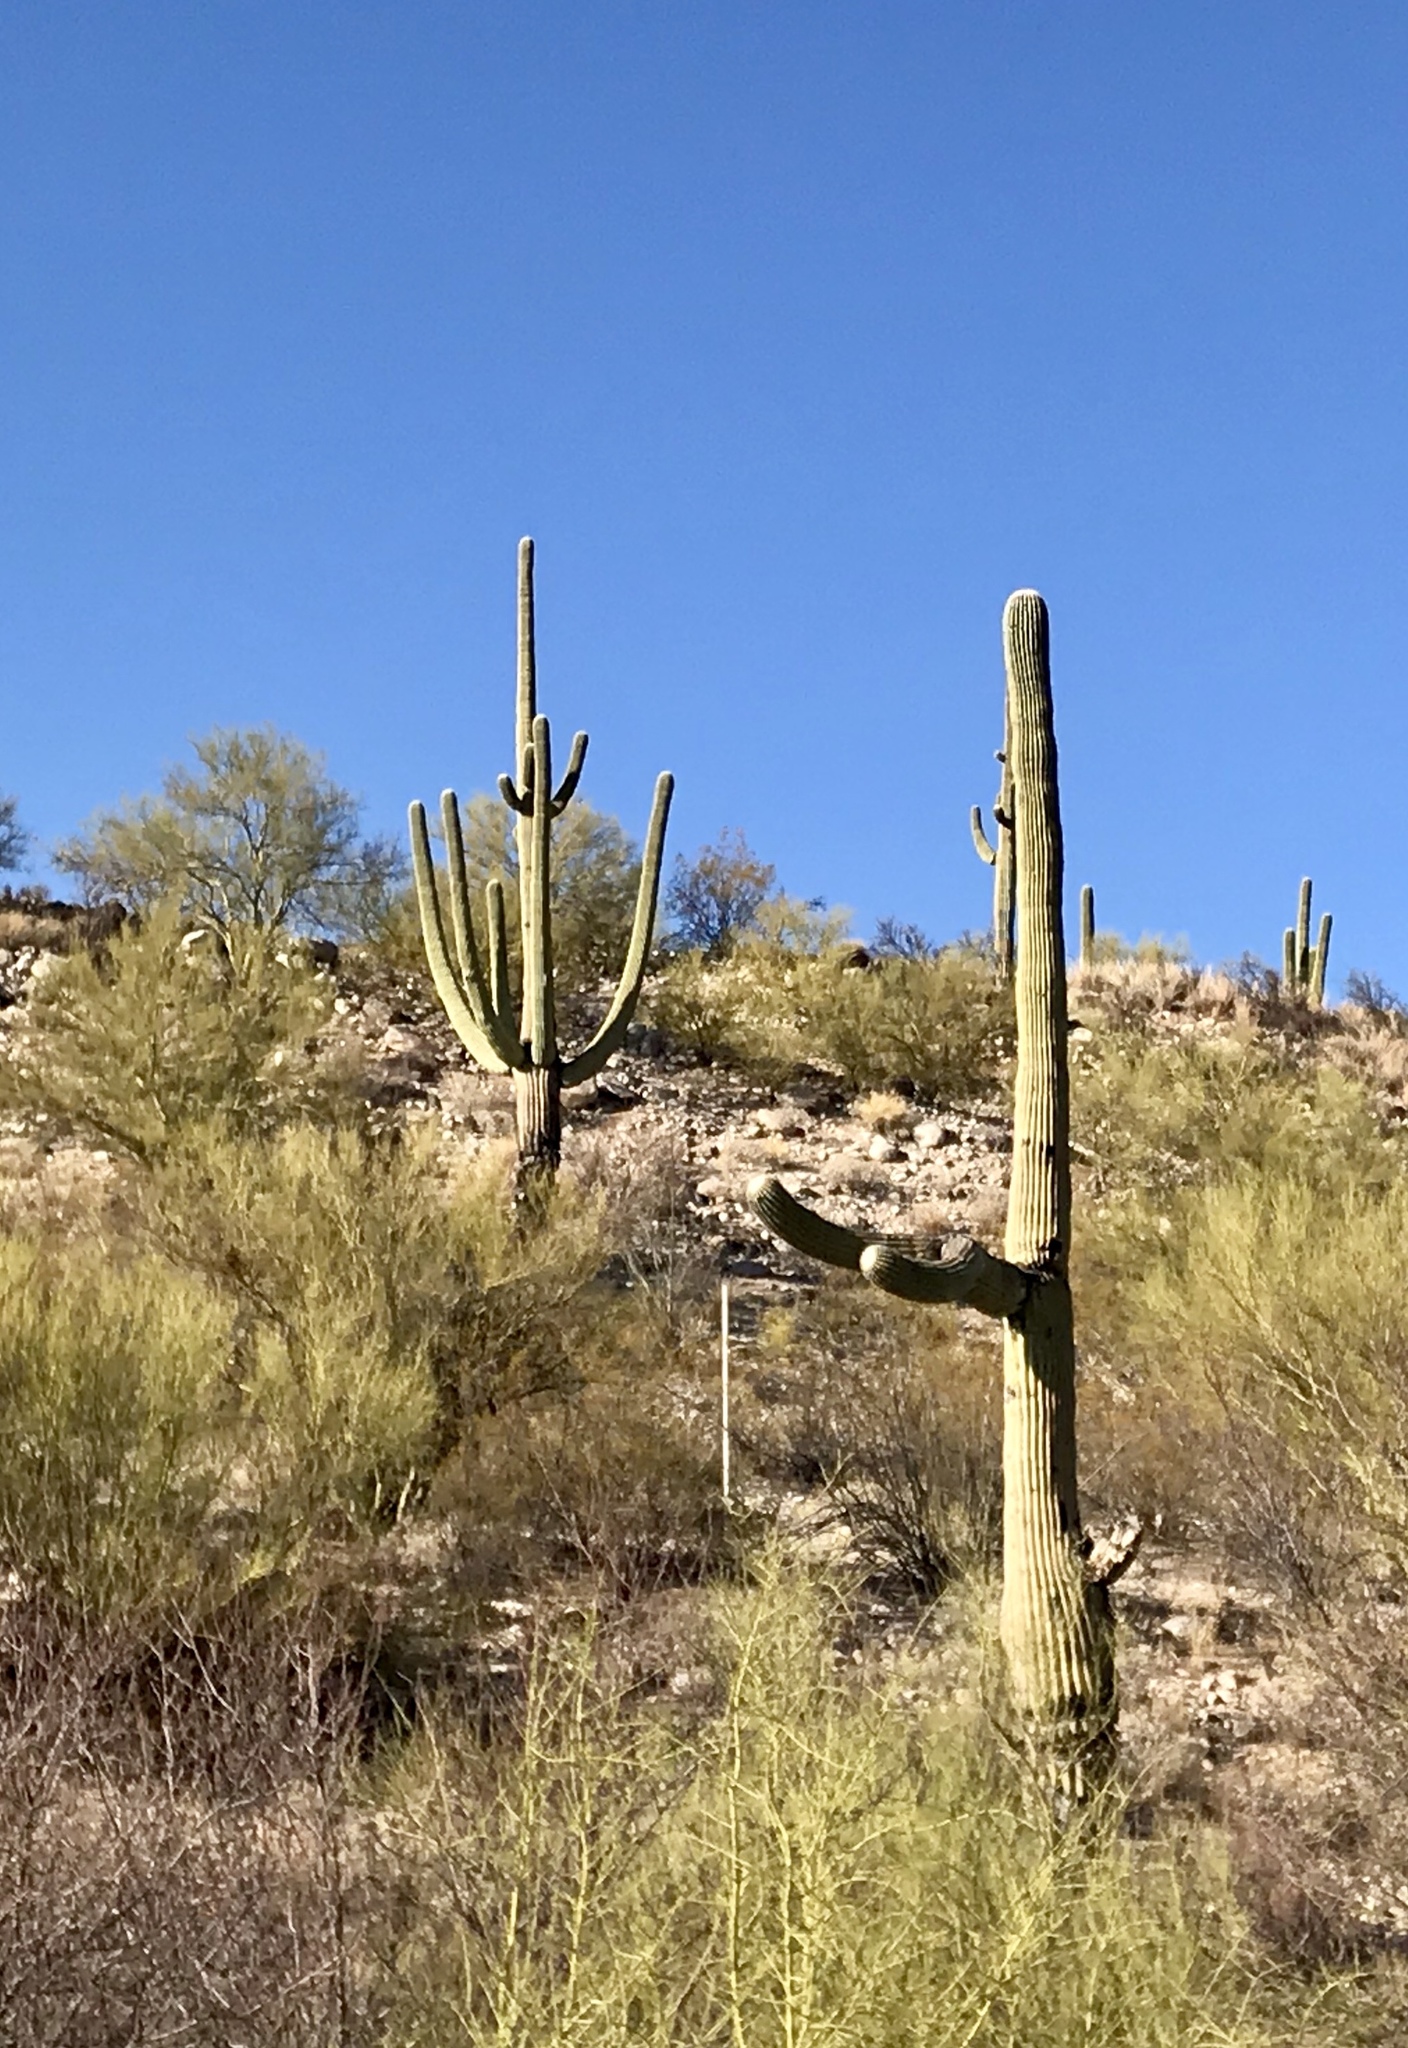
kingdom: Plantae
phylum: Tracheophyta
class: Magnoliopsida
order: Caryophyllales
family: Cactaceae
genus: Carnegiea
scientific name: Carnegiea gigantea
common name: Saguaro
